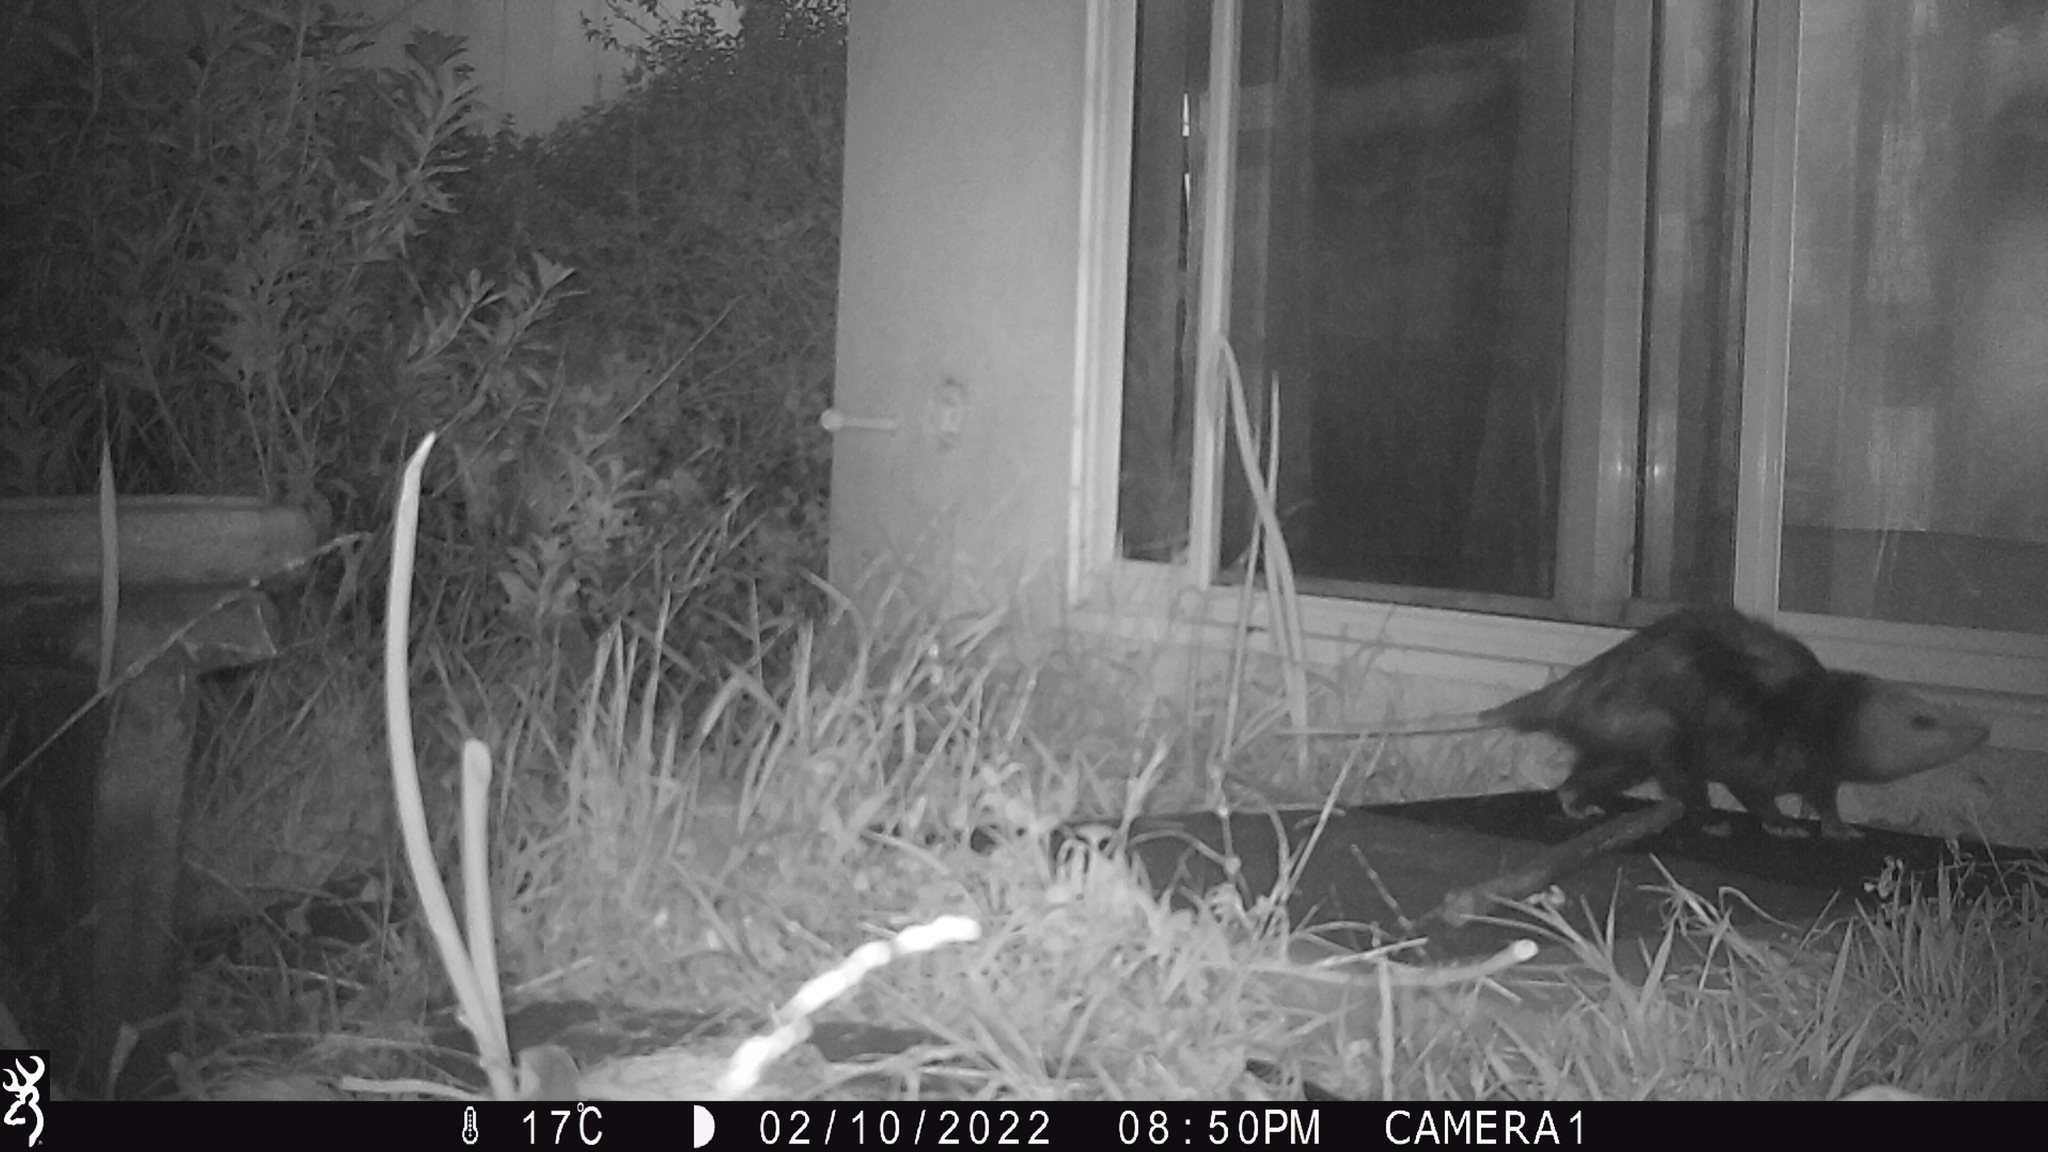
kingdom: Animalia
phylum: Chordata
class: Mammalia
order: Didelphimorphia
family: Didelphidae
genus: Didelphis
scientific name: Didelphis virginiana
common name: Virginia opossum
